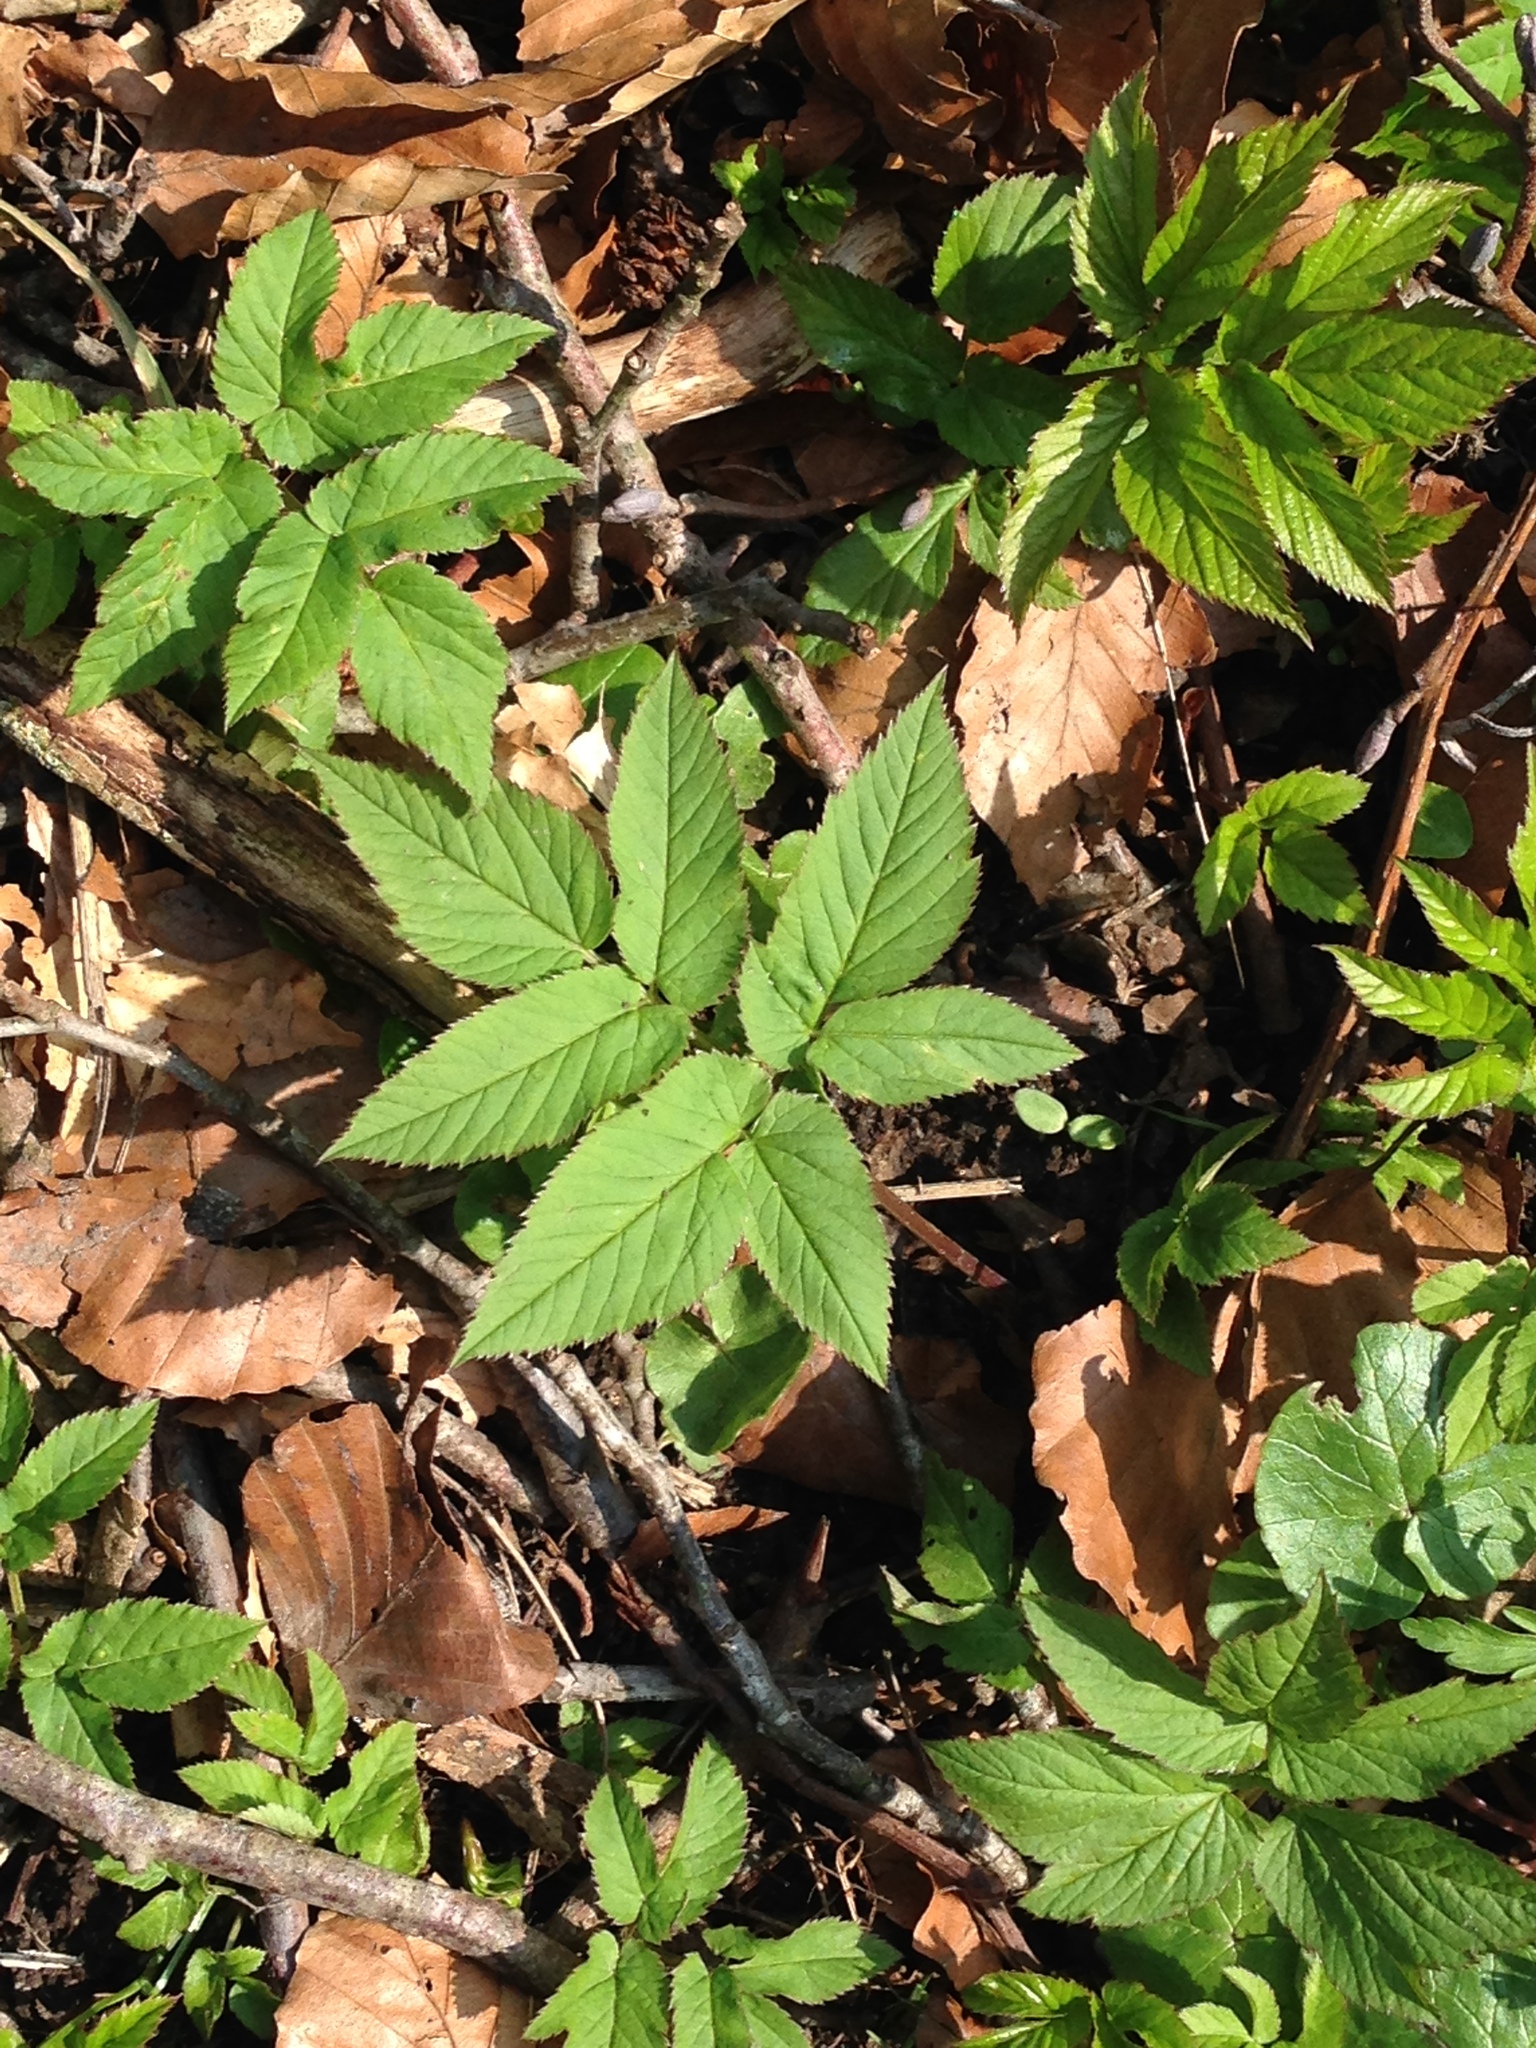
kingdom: Plantae
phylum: Tracheophyta
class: Magnoliopsida
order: Apiales
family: Apiaceae
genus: Aegopodium
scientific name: Aegopodium podagraria
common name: Ground-elder
